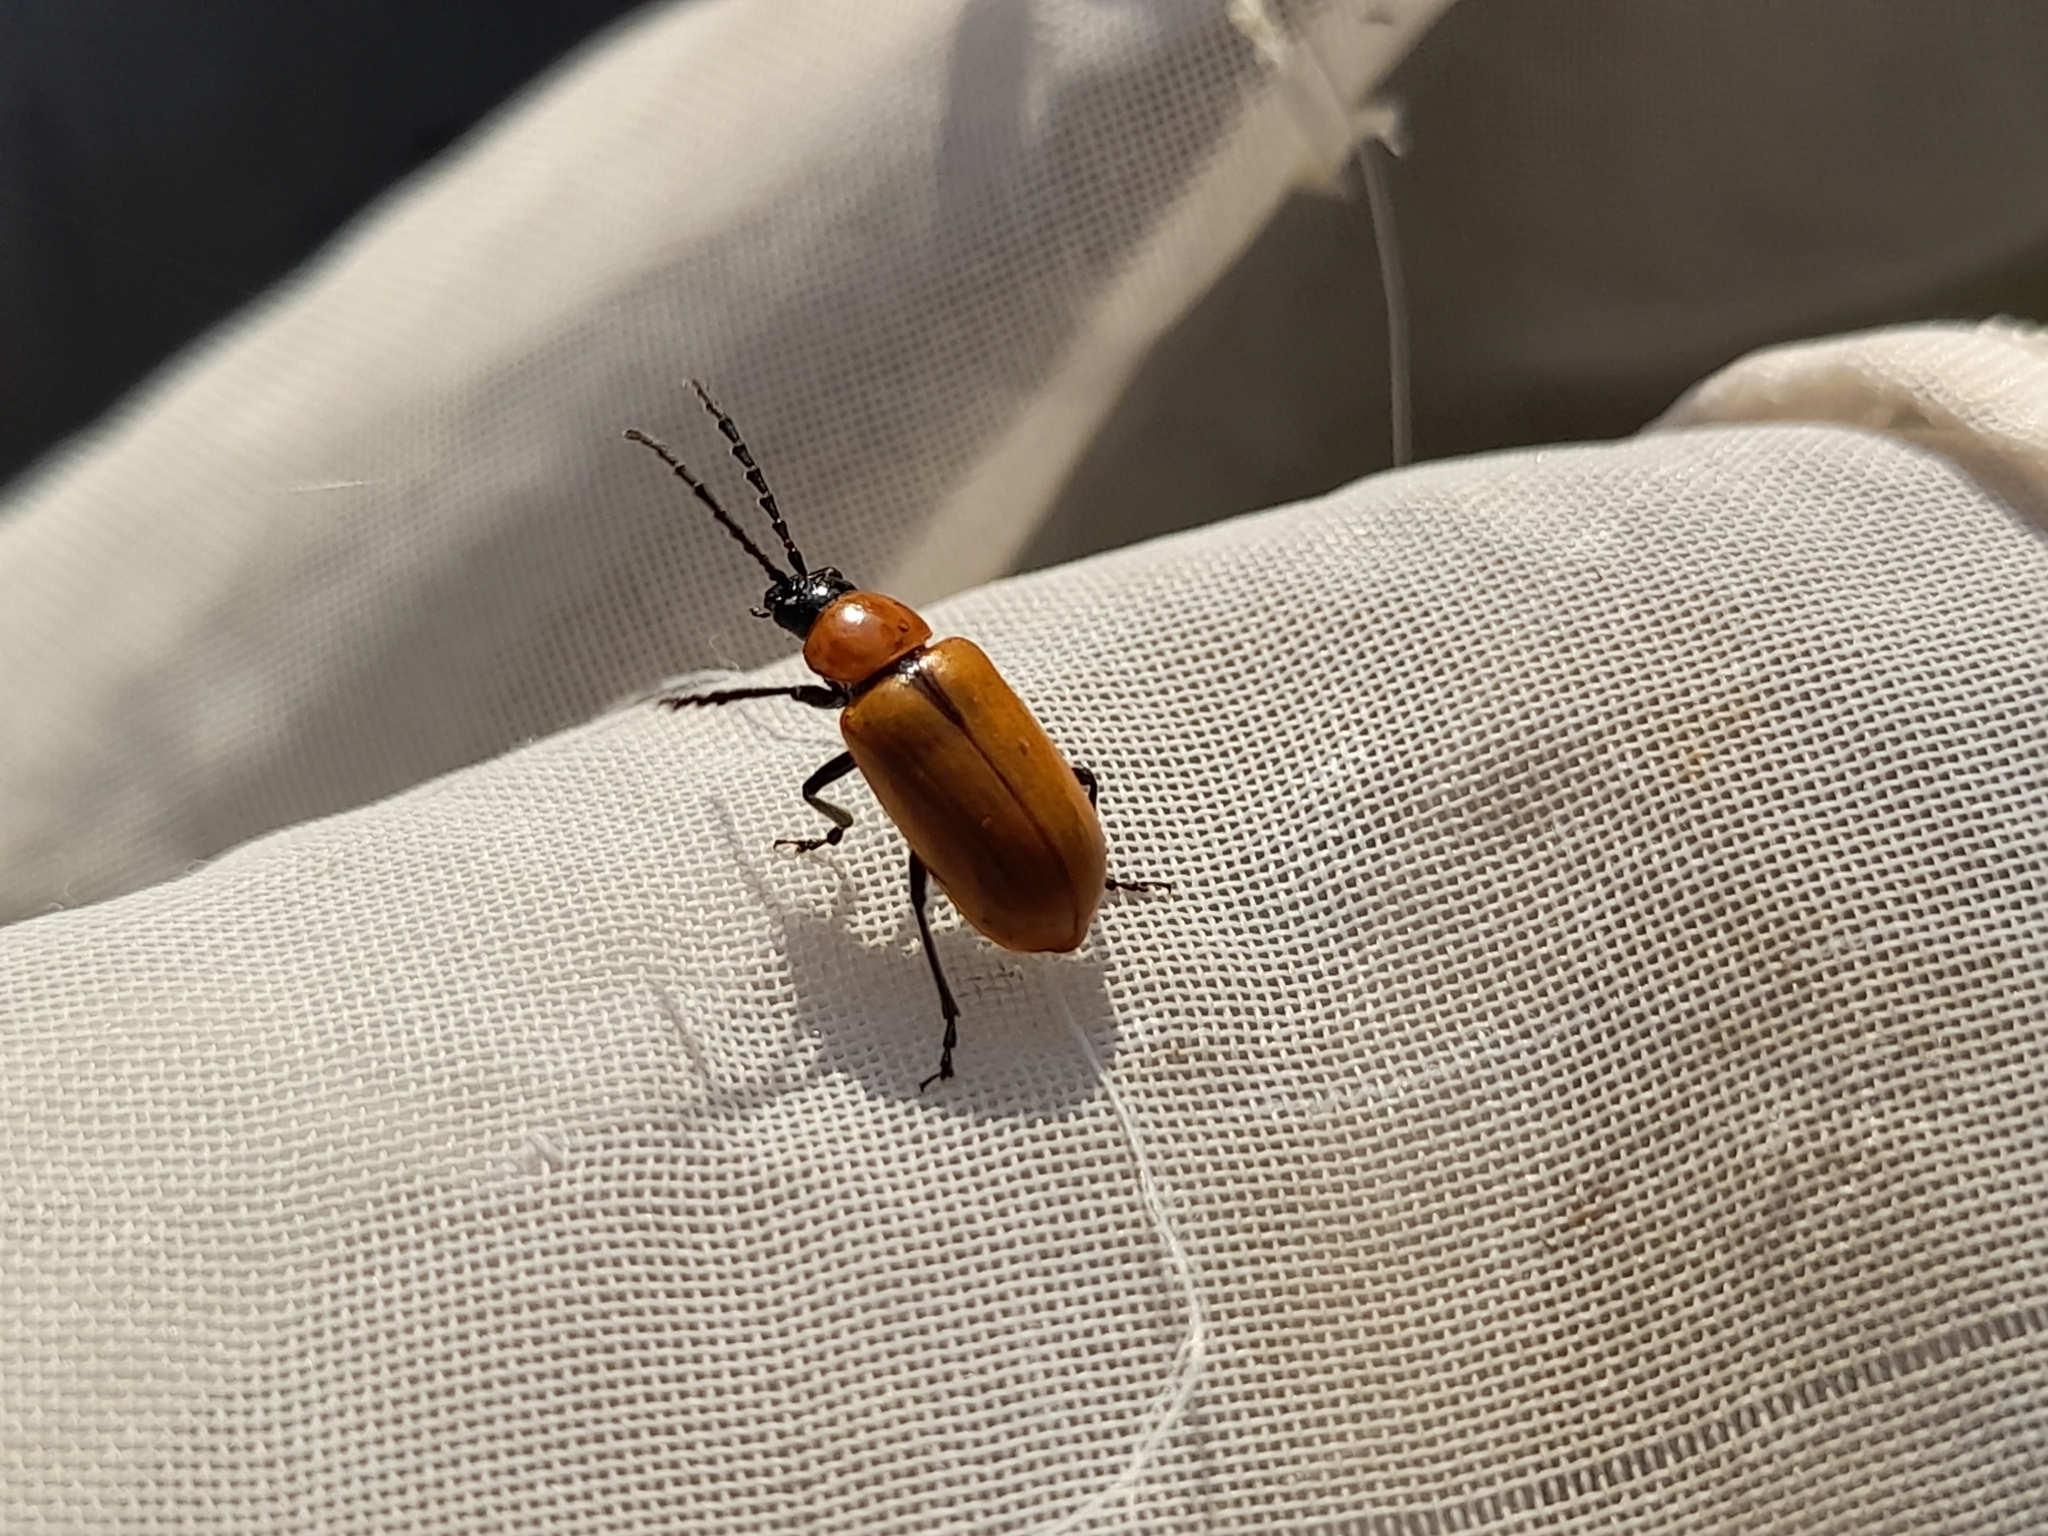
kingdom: Animalia
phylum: Arthropoda
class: Insecta
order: Coleoptera
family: Chrysomelidae
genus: Exosoma
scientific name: Exosoma lusitanicum
